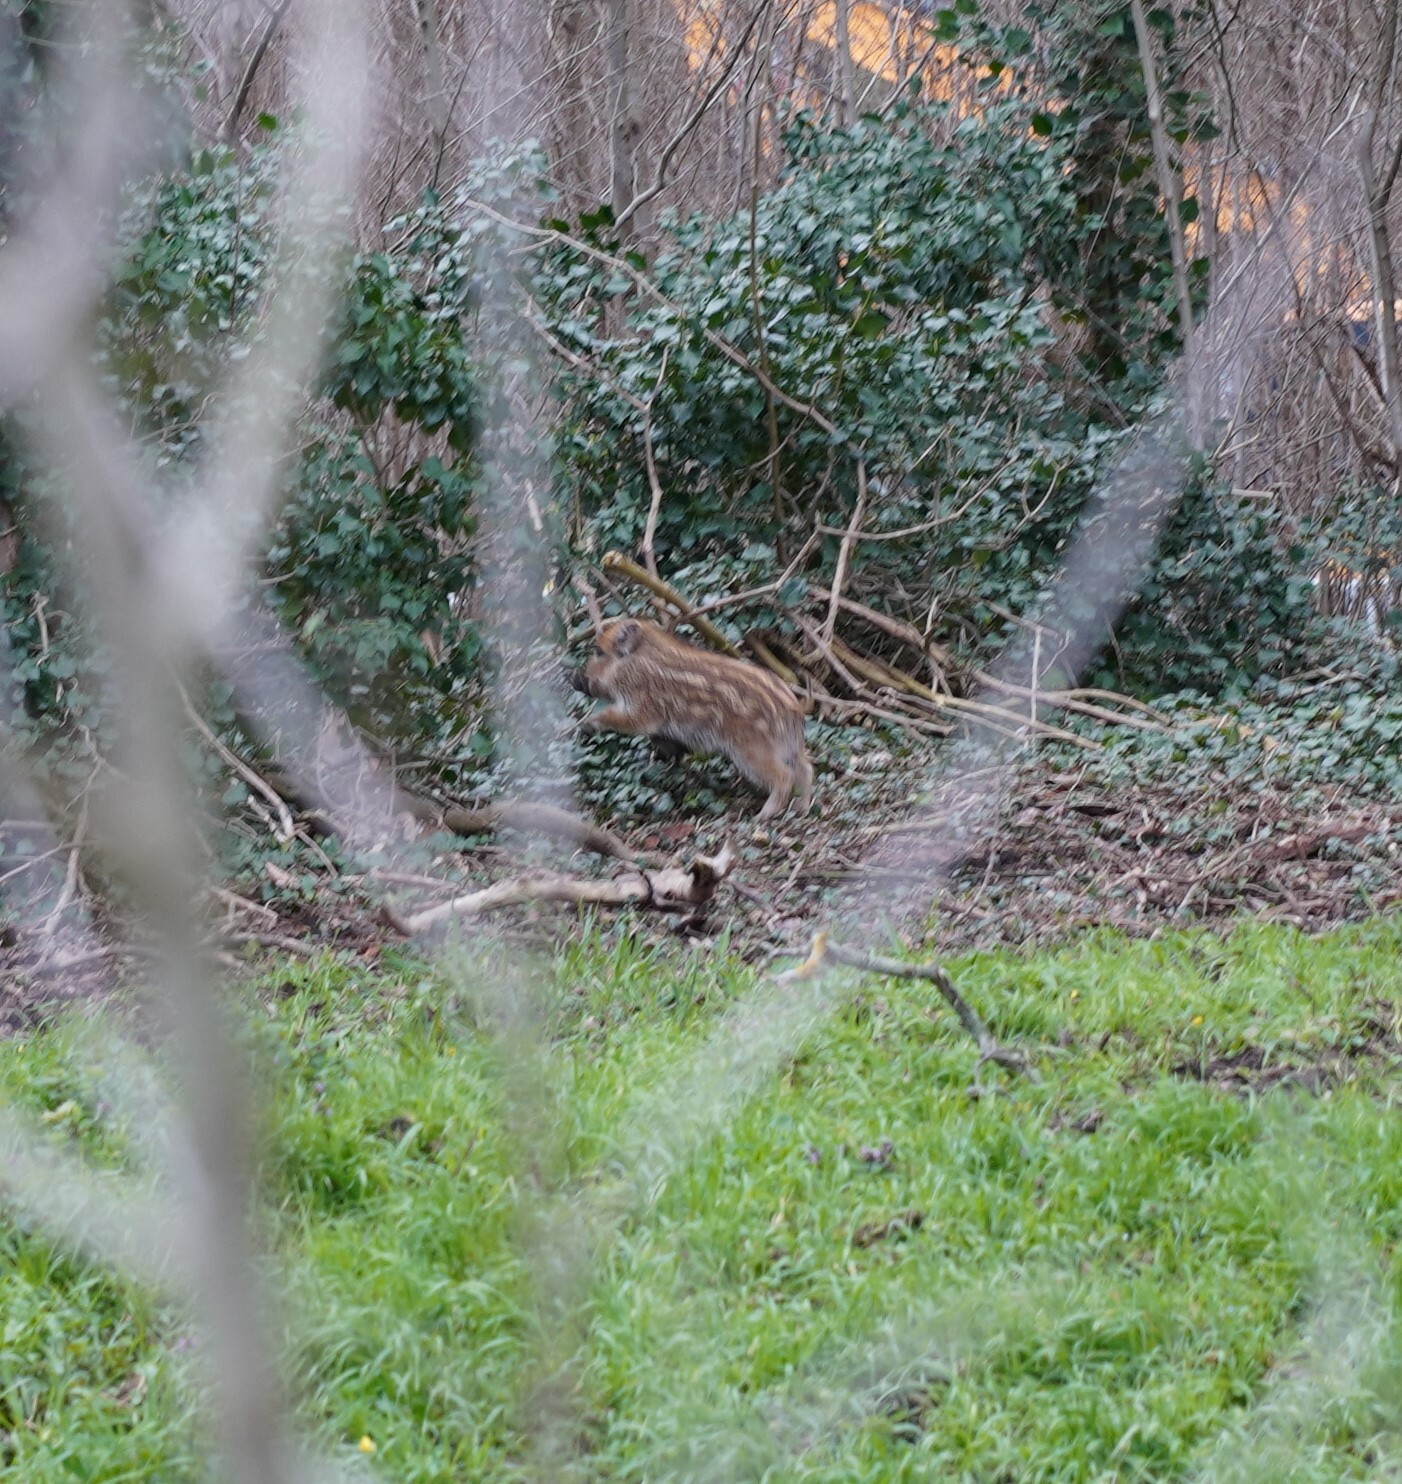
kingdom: Animalia
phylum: Chordata
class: Mammalia
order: Artiodactyla
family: Suidae
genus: Sus
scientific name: Sus scrofa
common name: Wild boar
